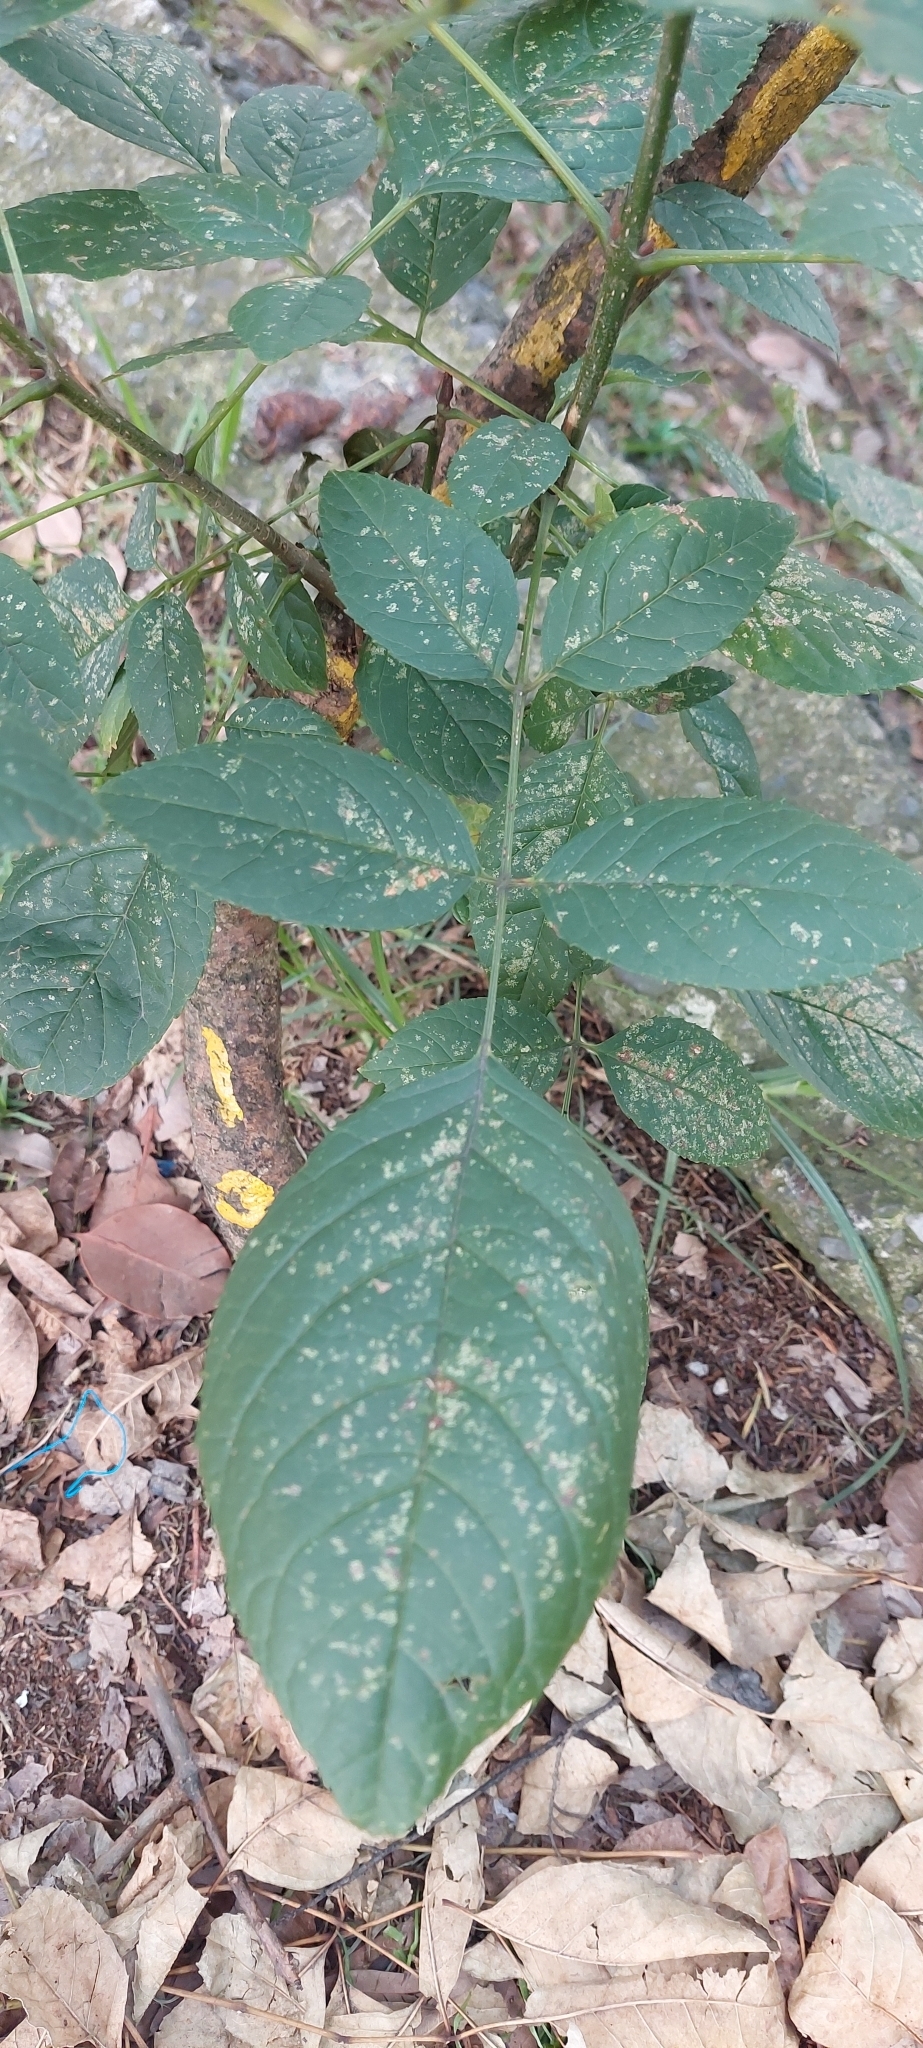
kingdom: Plantae
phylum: Tracheophyta
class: Magnoliopsida
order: Lamiales
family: Oleaceae
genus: Fraxinus
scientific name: Fraxinus uhdei
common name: Shamel ash
